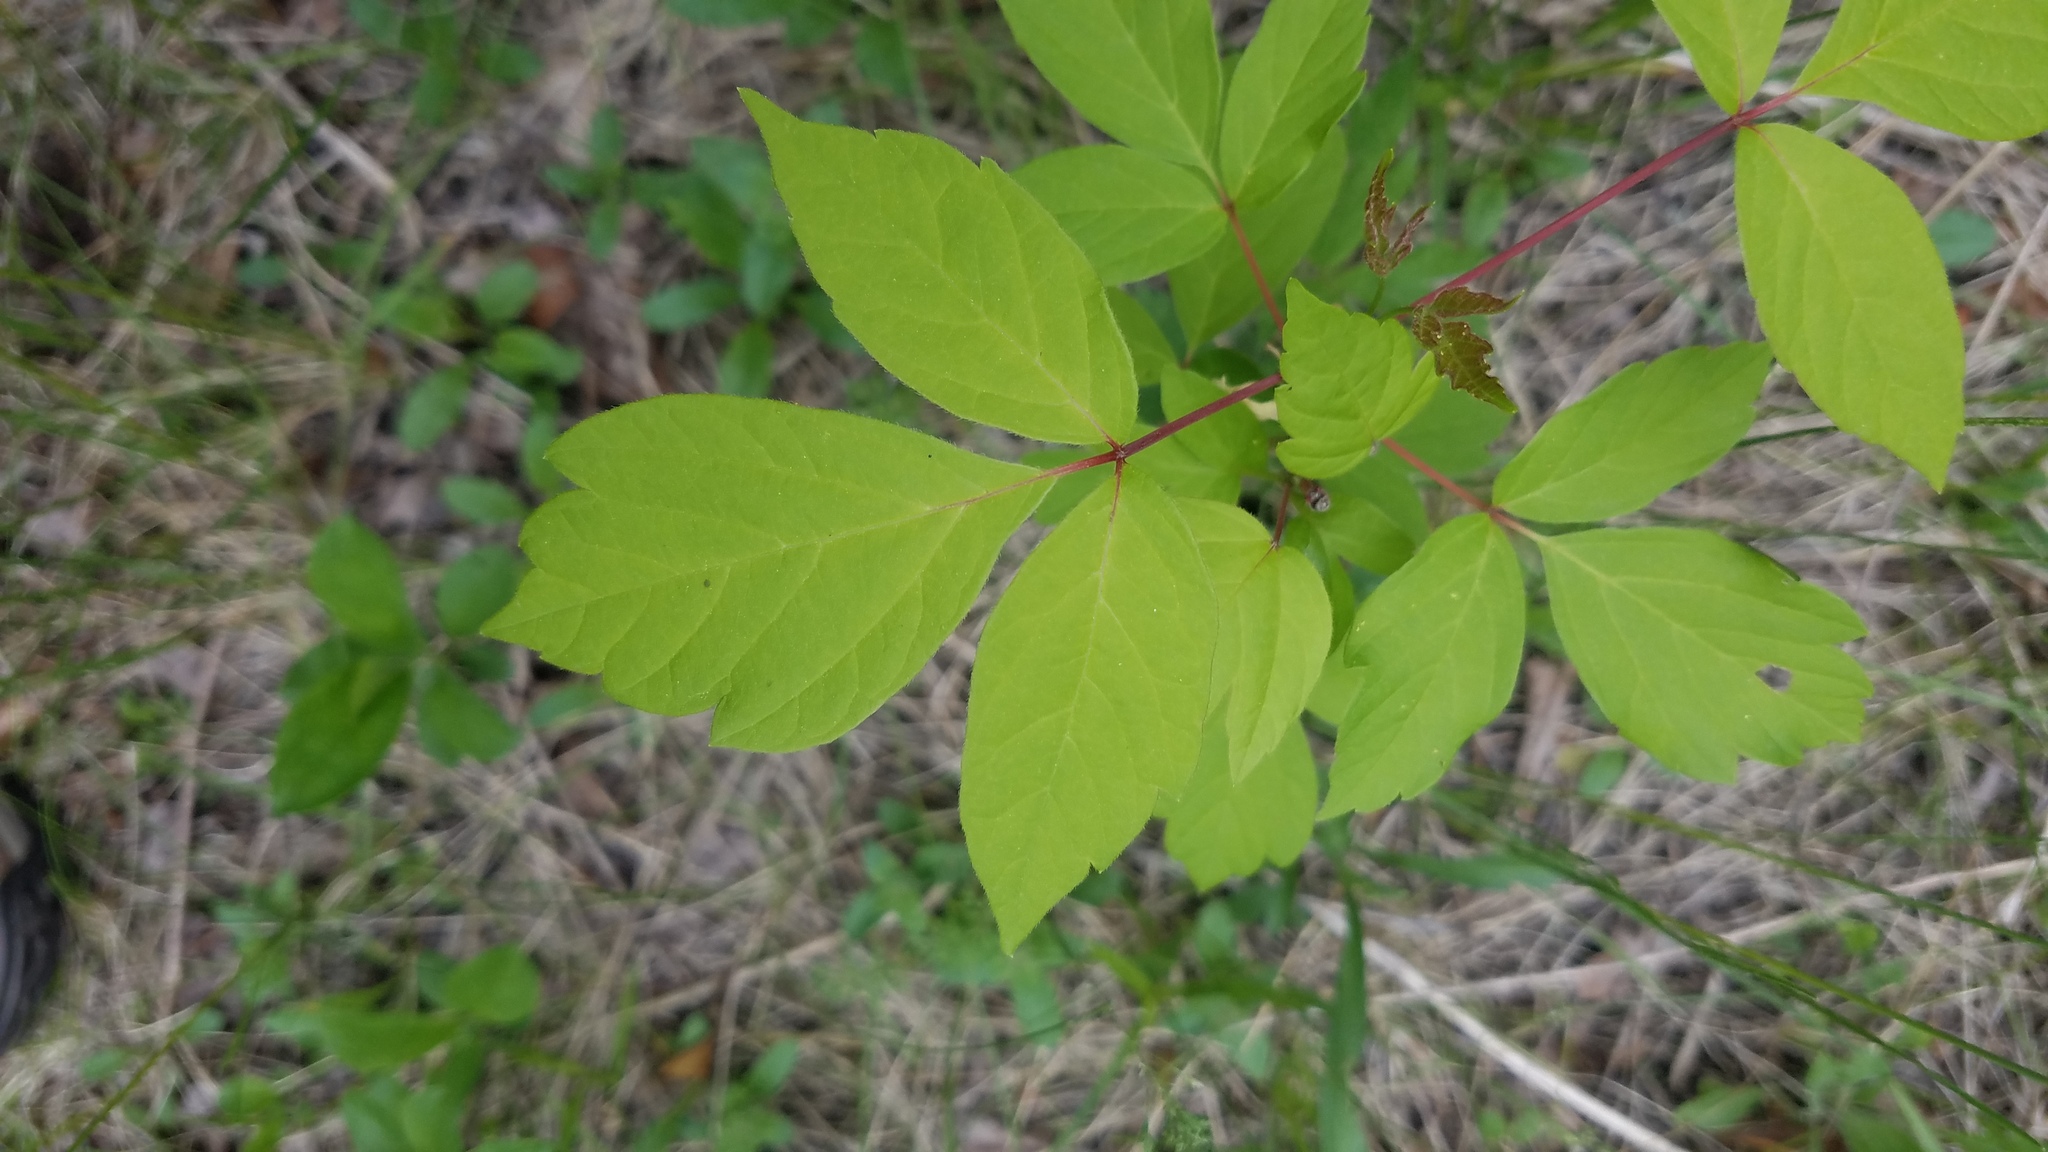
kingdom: Plantae
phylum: Tracheophyta
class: Magnoliopsida
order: Sapindales
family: Sapindaceae
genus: Acer
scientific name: Acer negundo
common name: Ashleaf maple
